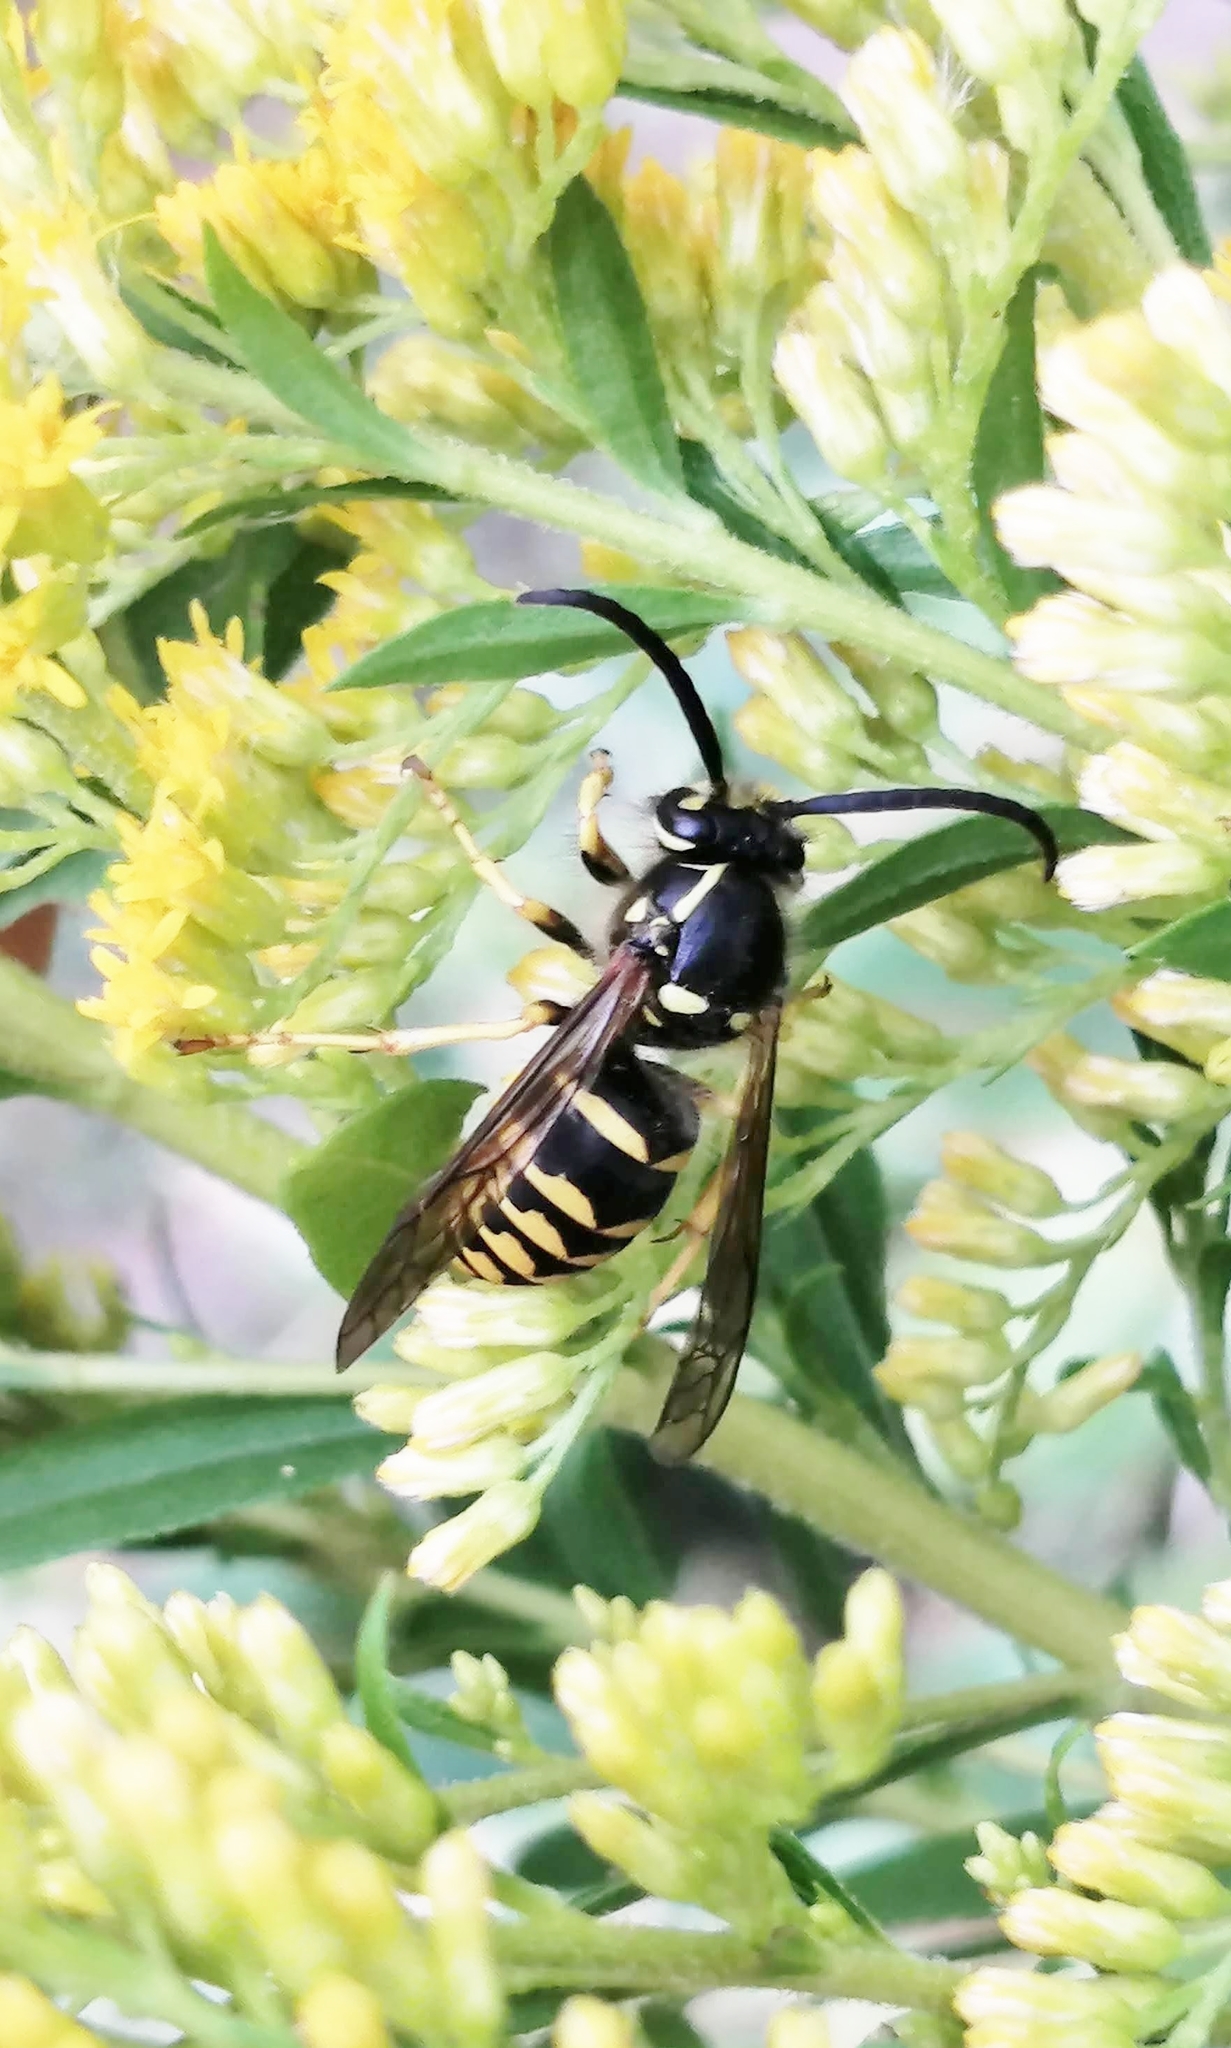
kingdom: Animalia
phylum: Arthropoda
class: Insecta
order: Hymenoptera
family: Vespidae
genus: Dolichovespula
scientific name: Dolichovespula arenaria
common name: Aerial yellowjacket
